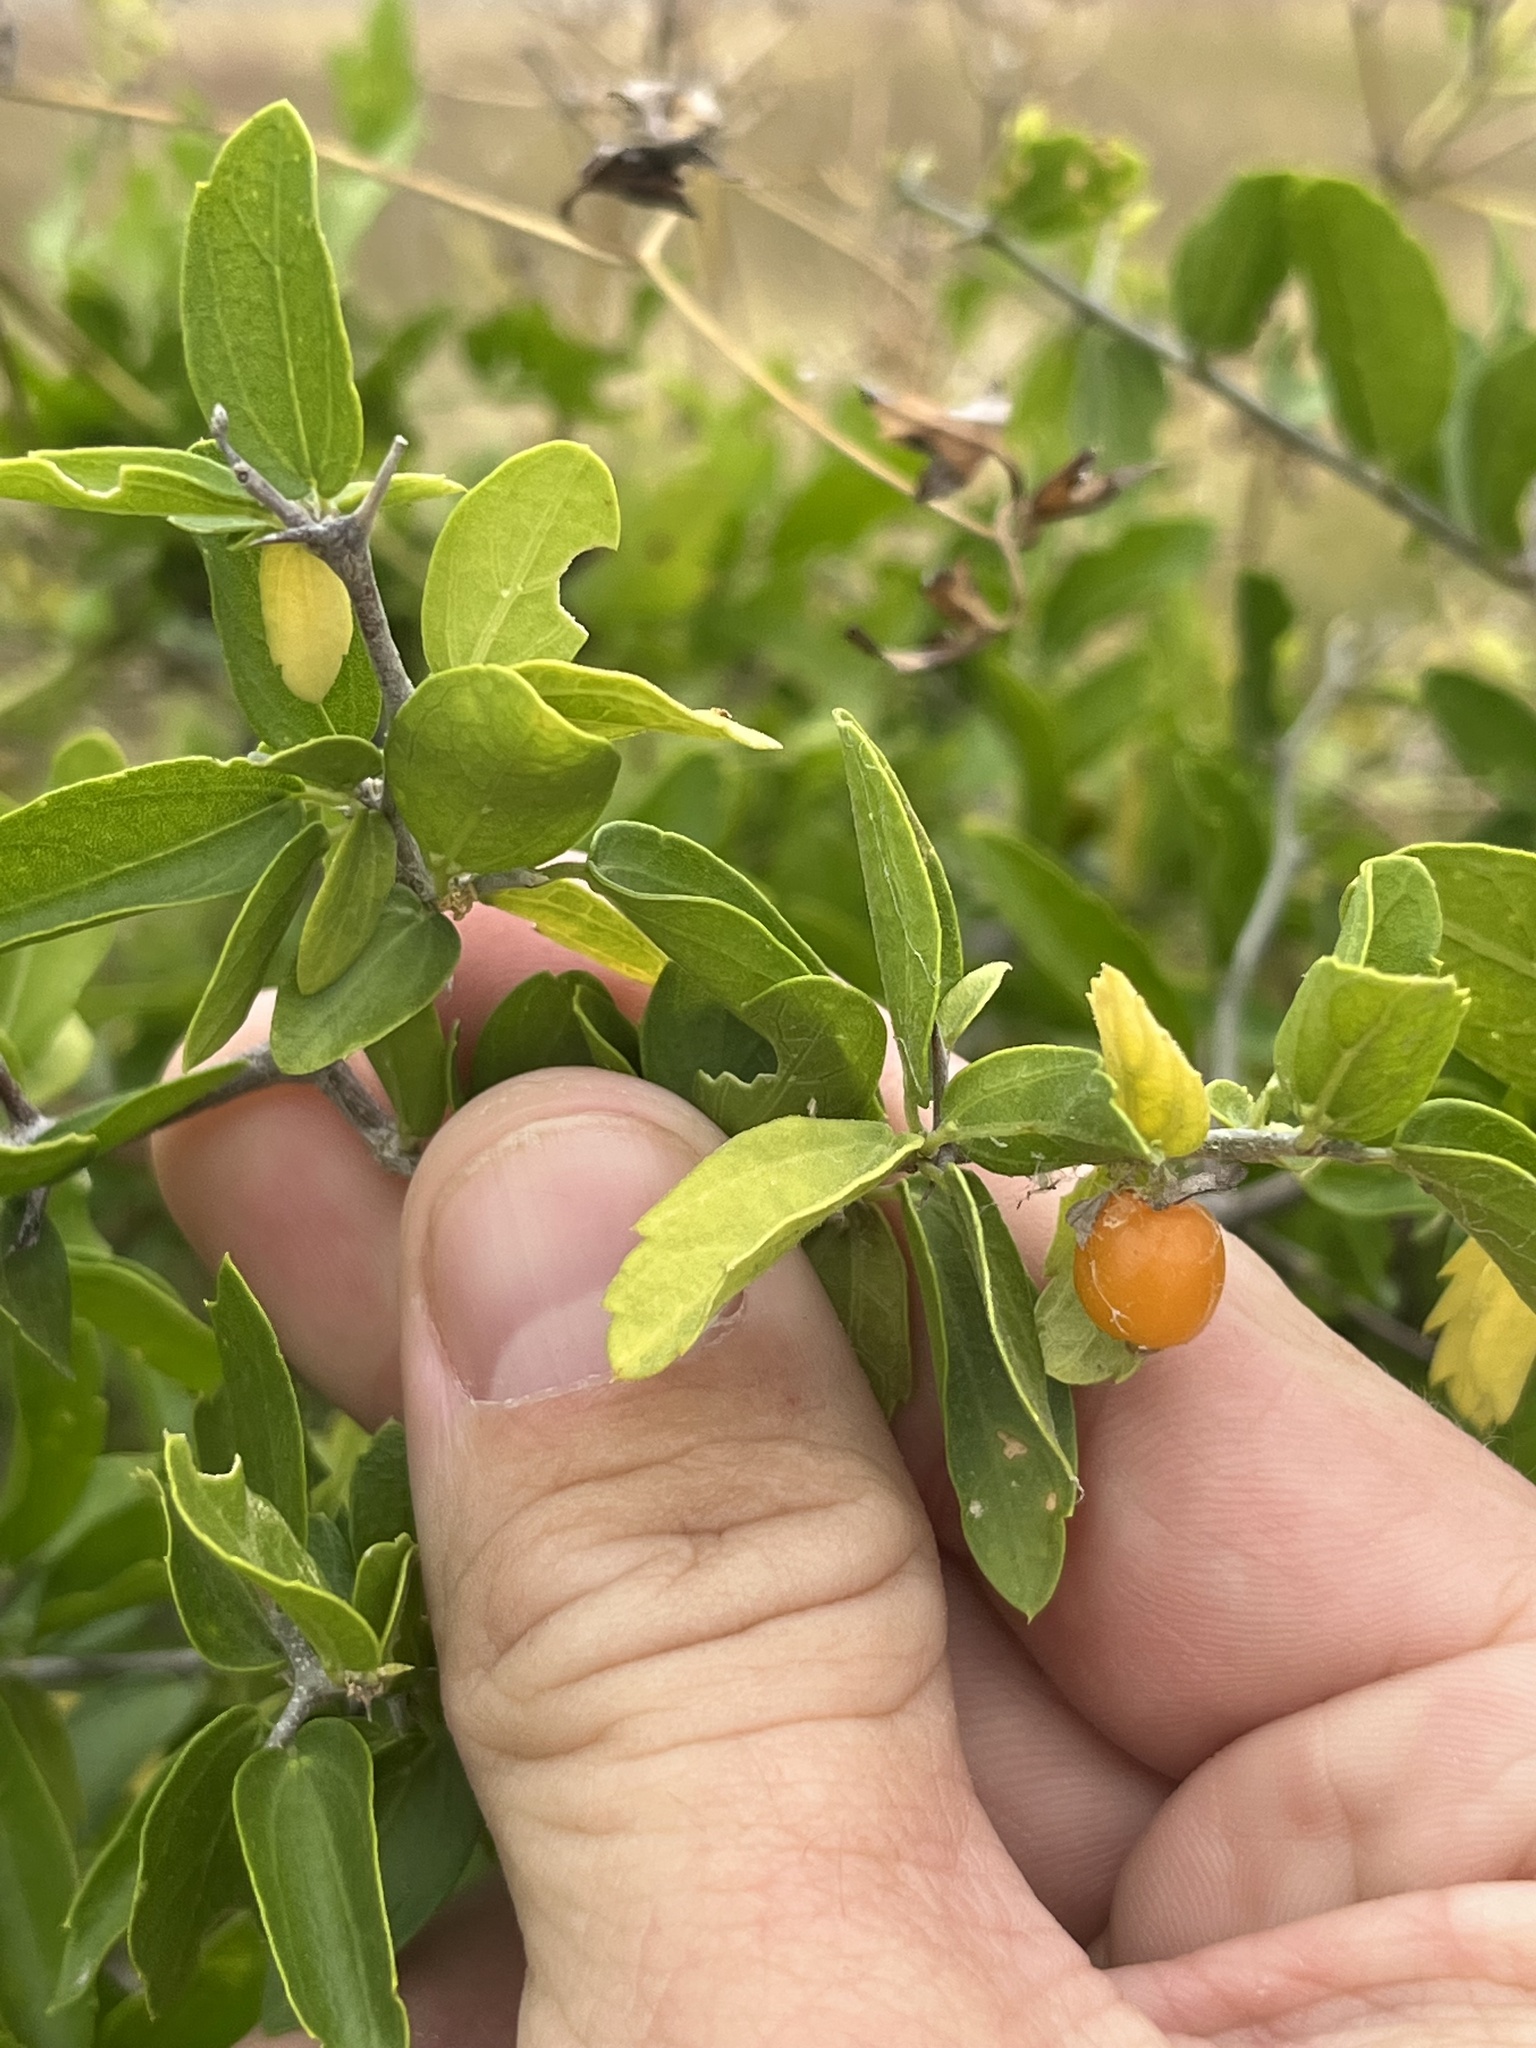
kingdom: Plantae
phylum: Tracheophyta
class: Magnoliopsida
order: Rosales
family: Cannabaceae
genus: Celtis
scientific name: Celtis pallida
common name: Desert hackberry
